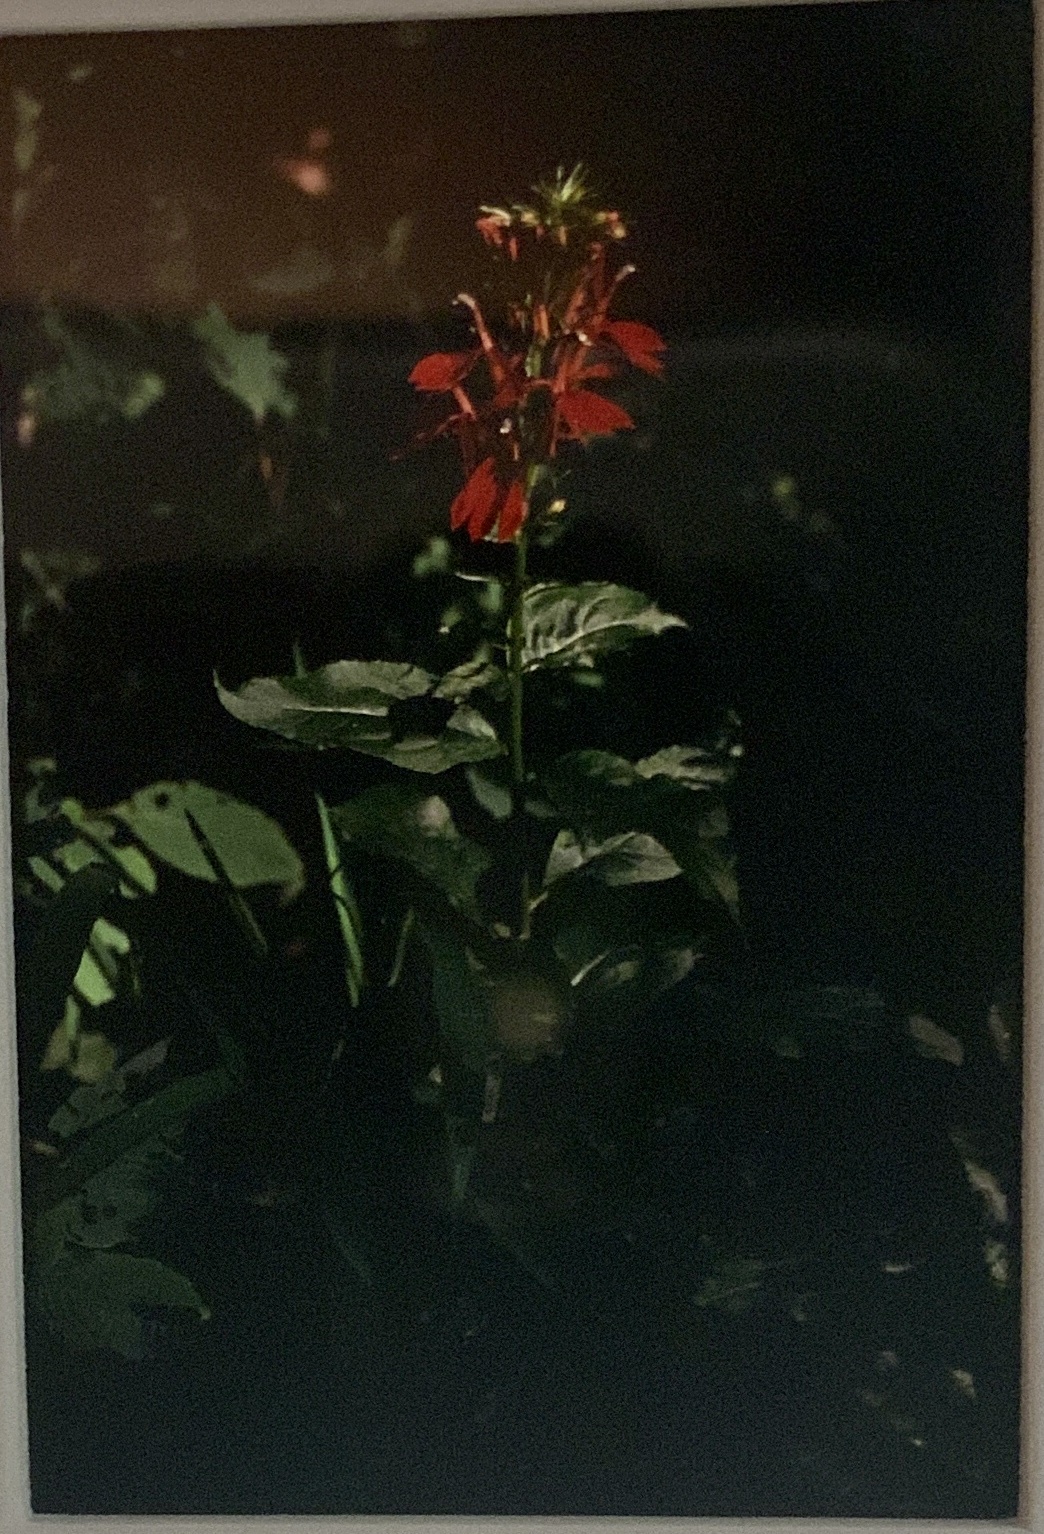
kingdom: Plantae
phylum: Tracheophyta
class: Magnoliopsida
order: Asterales
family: Campanulaceae
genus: Lobelia
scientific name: Lobelia cardinalis
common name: Cardinal flower
